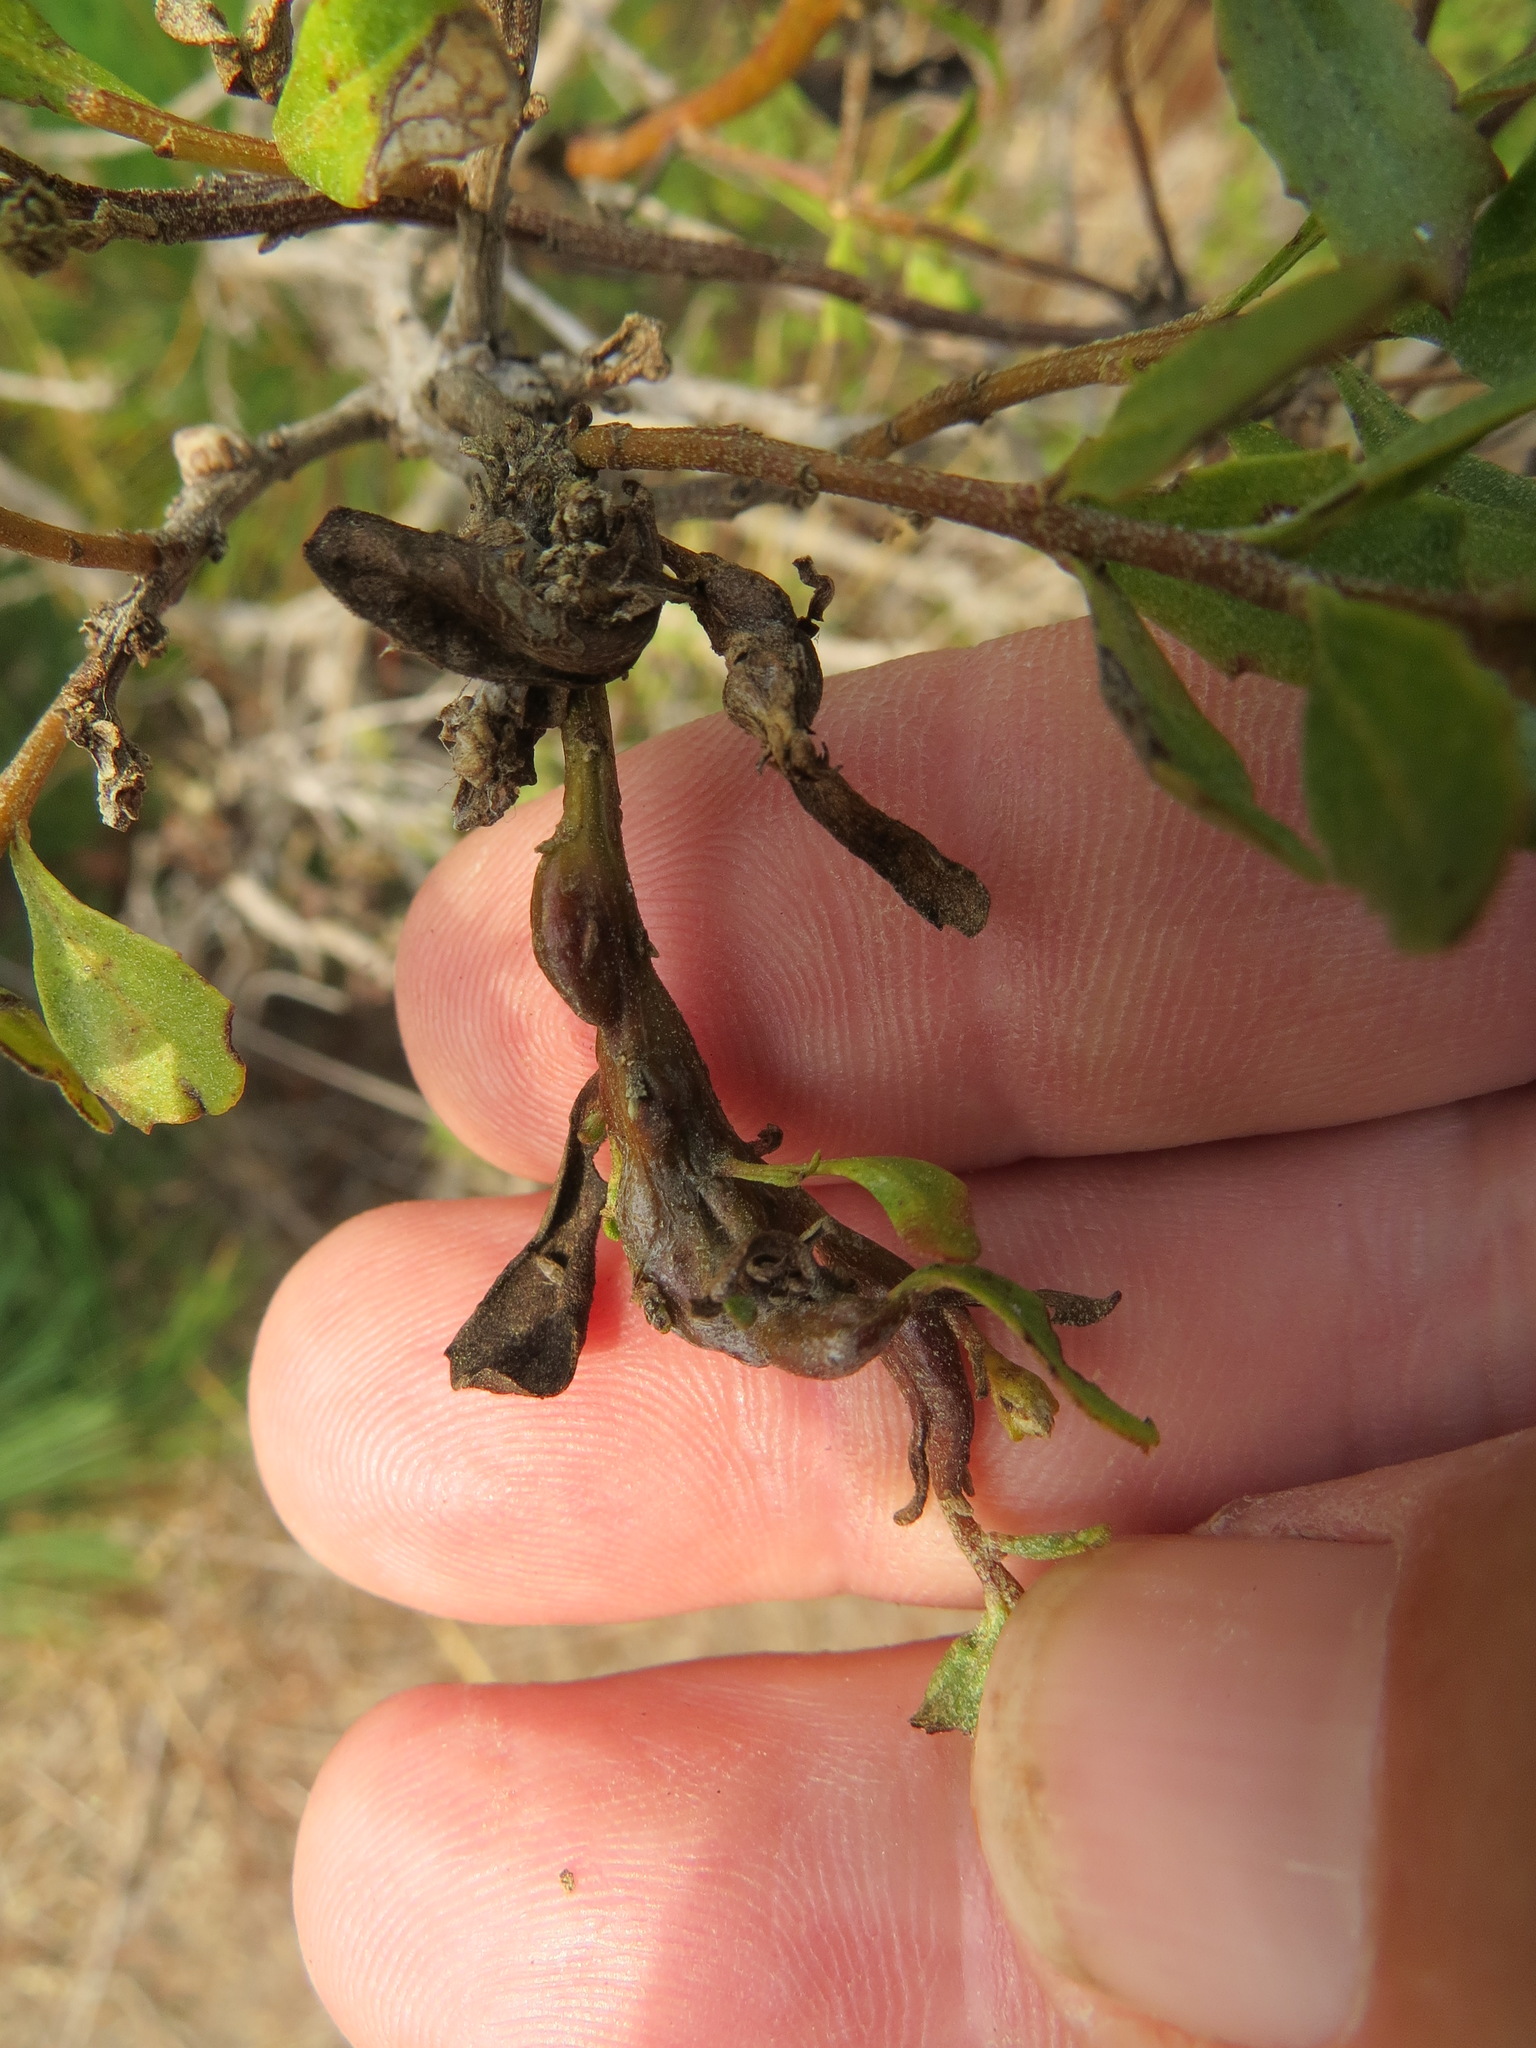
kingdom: Animalia
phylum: Arthropoda
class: Insecta
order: Diptera
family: Cecidomyiidae
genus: Rhopalomyia
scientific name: Rhopalomyia baccharis
